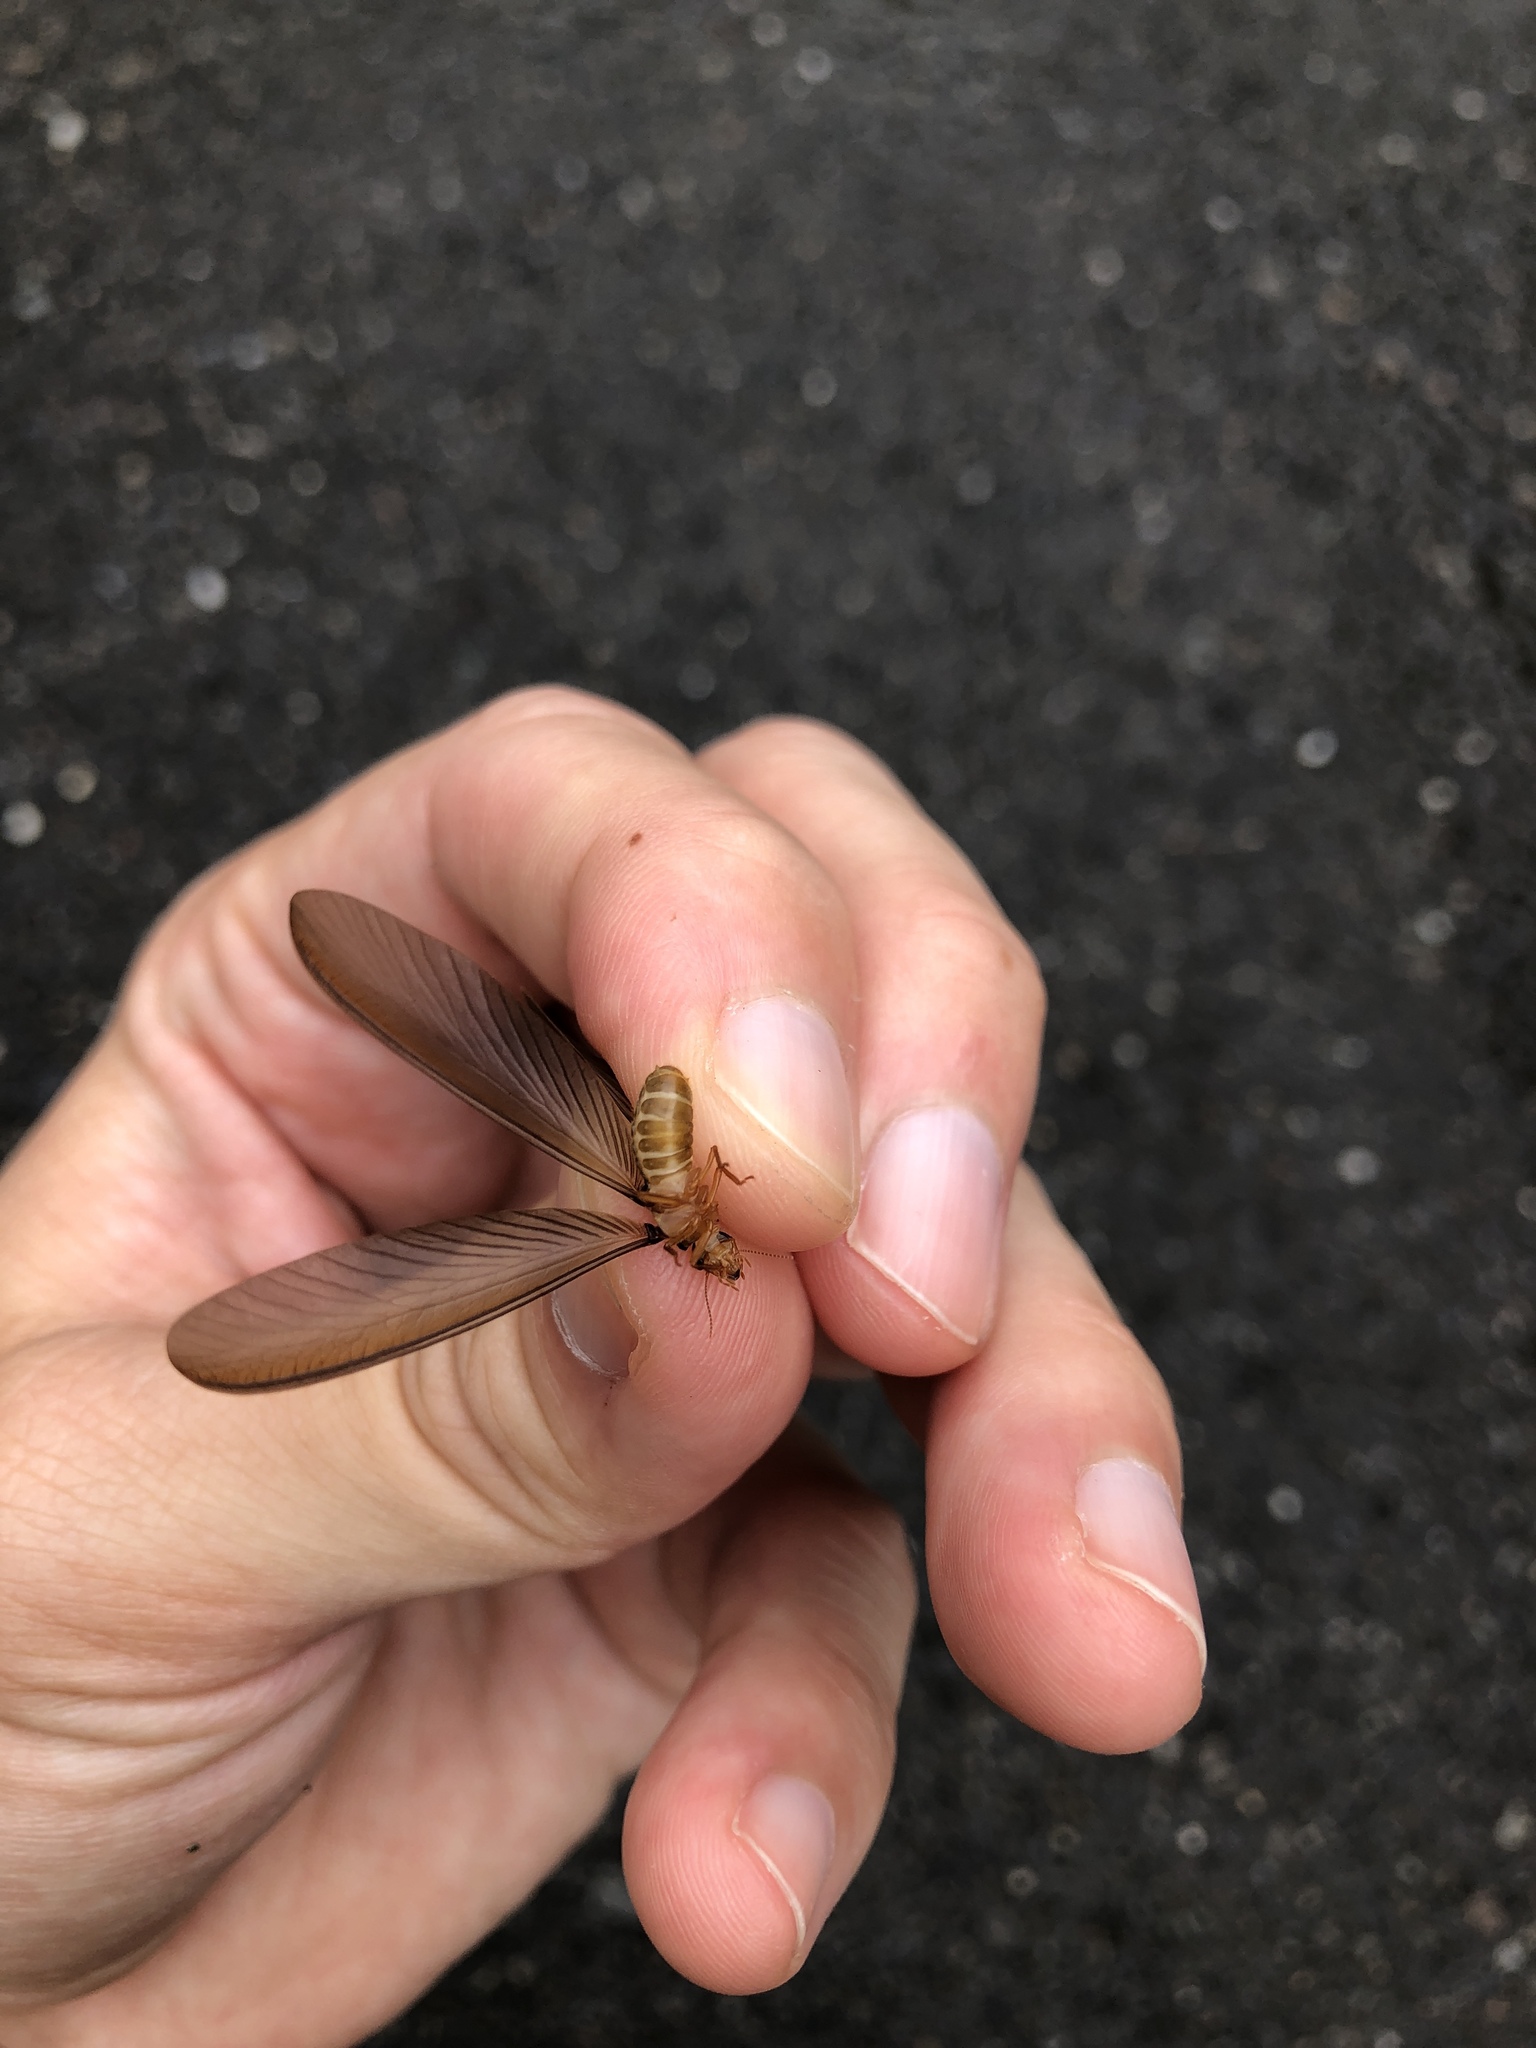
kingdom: Animalia
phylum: Arthropoda
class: Insecta
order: Blattodea
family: Termitidae
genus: Odontotermes
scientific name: Odontotermes formosanus
